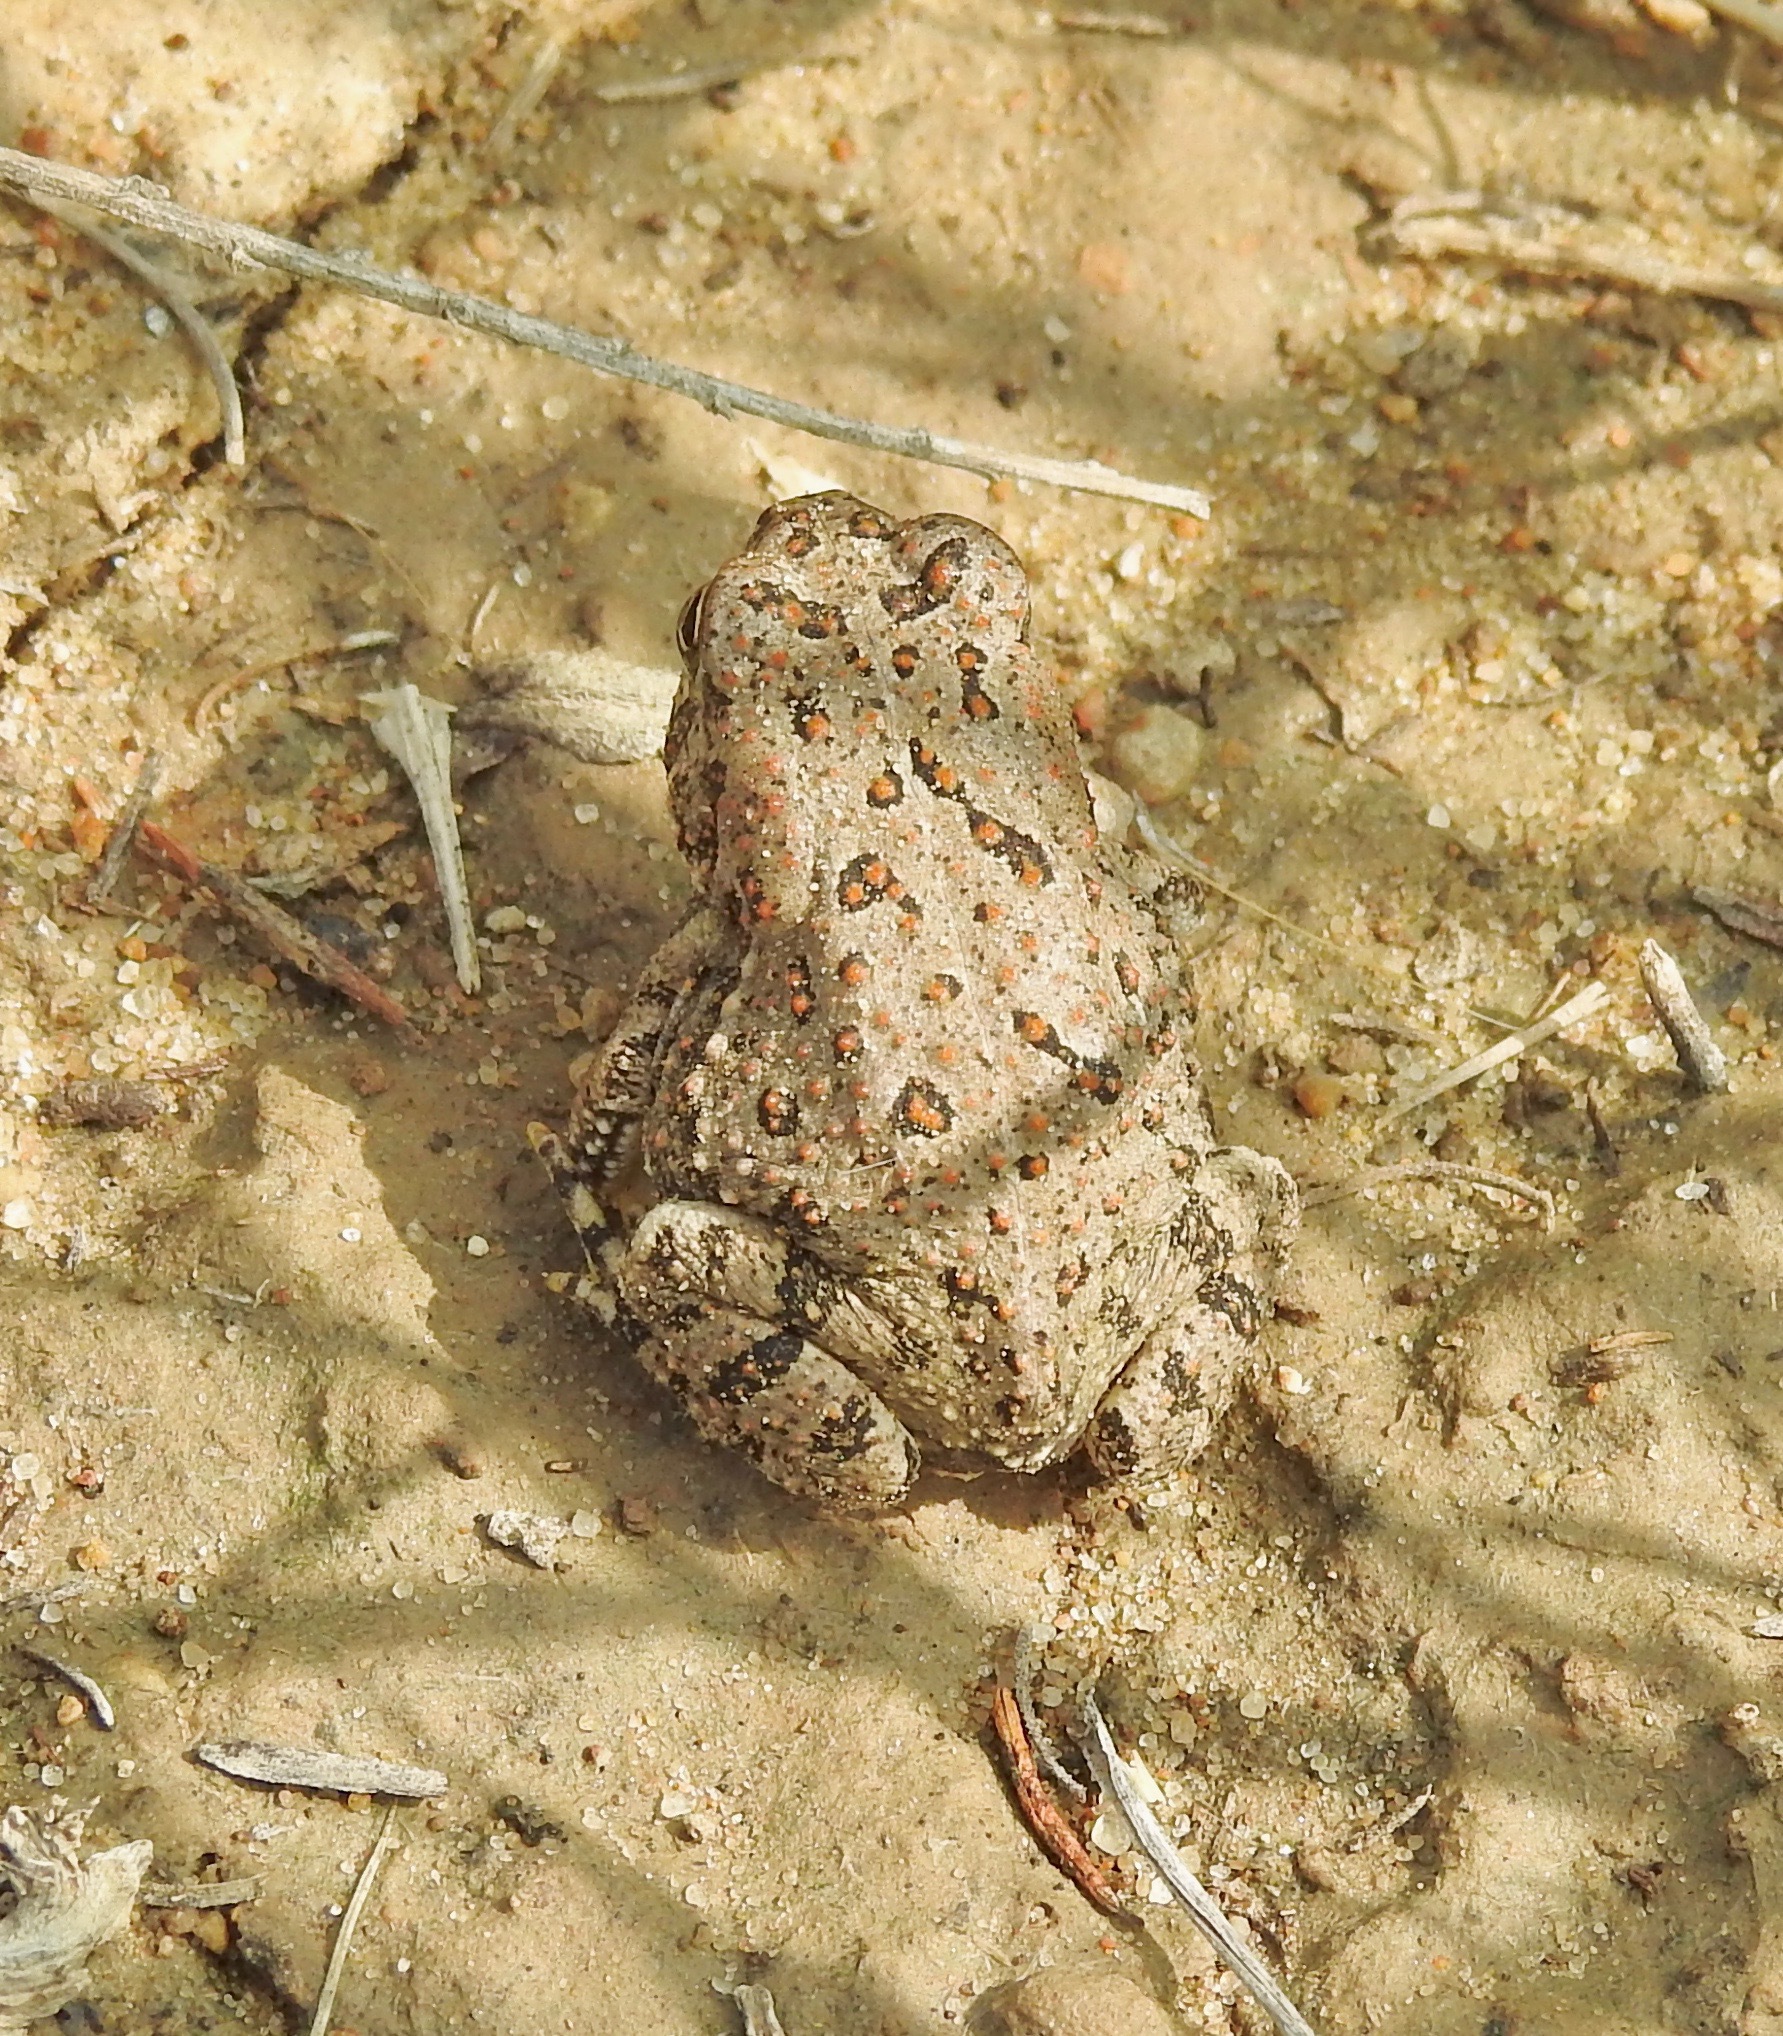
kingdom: Animalia
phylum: Chordata
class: Amphibia
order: Anura
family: Bufonidae
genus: Anaxyrus
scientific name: Anaxyrus woodhousii
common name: Woodhouse's toad
